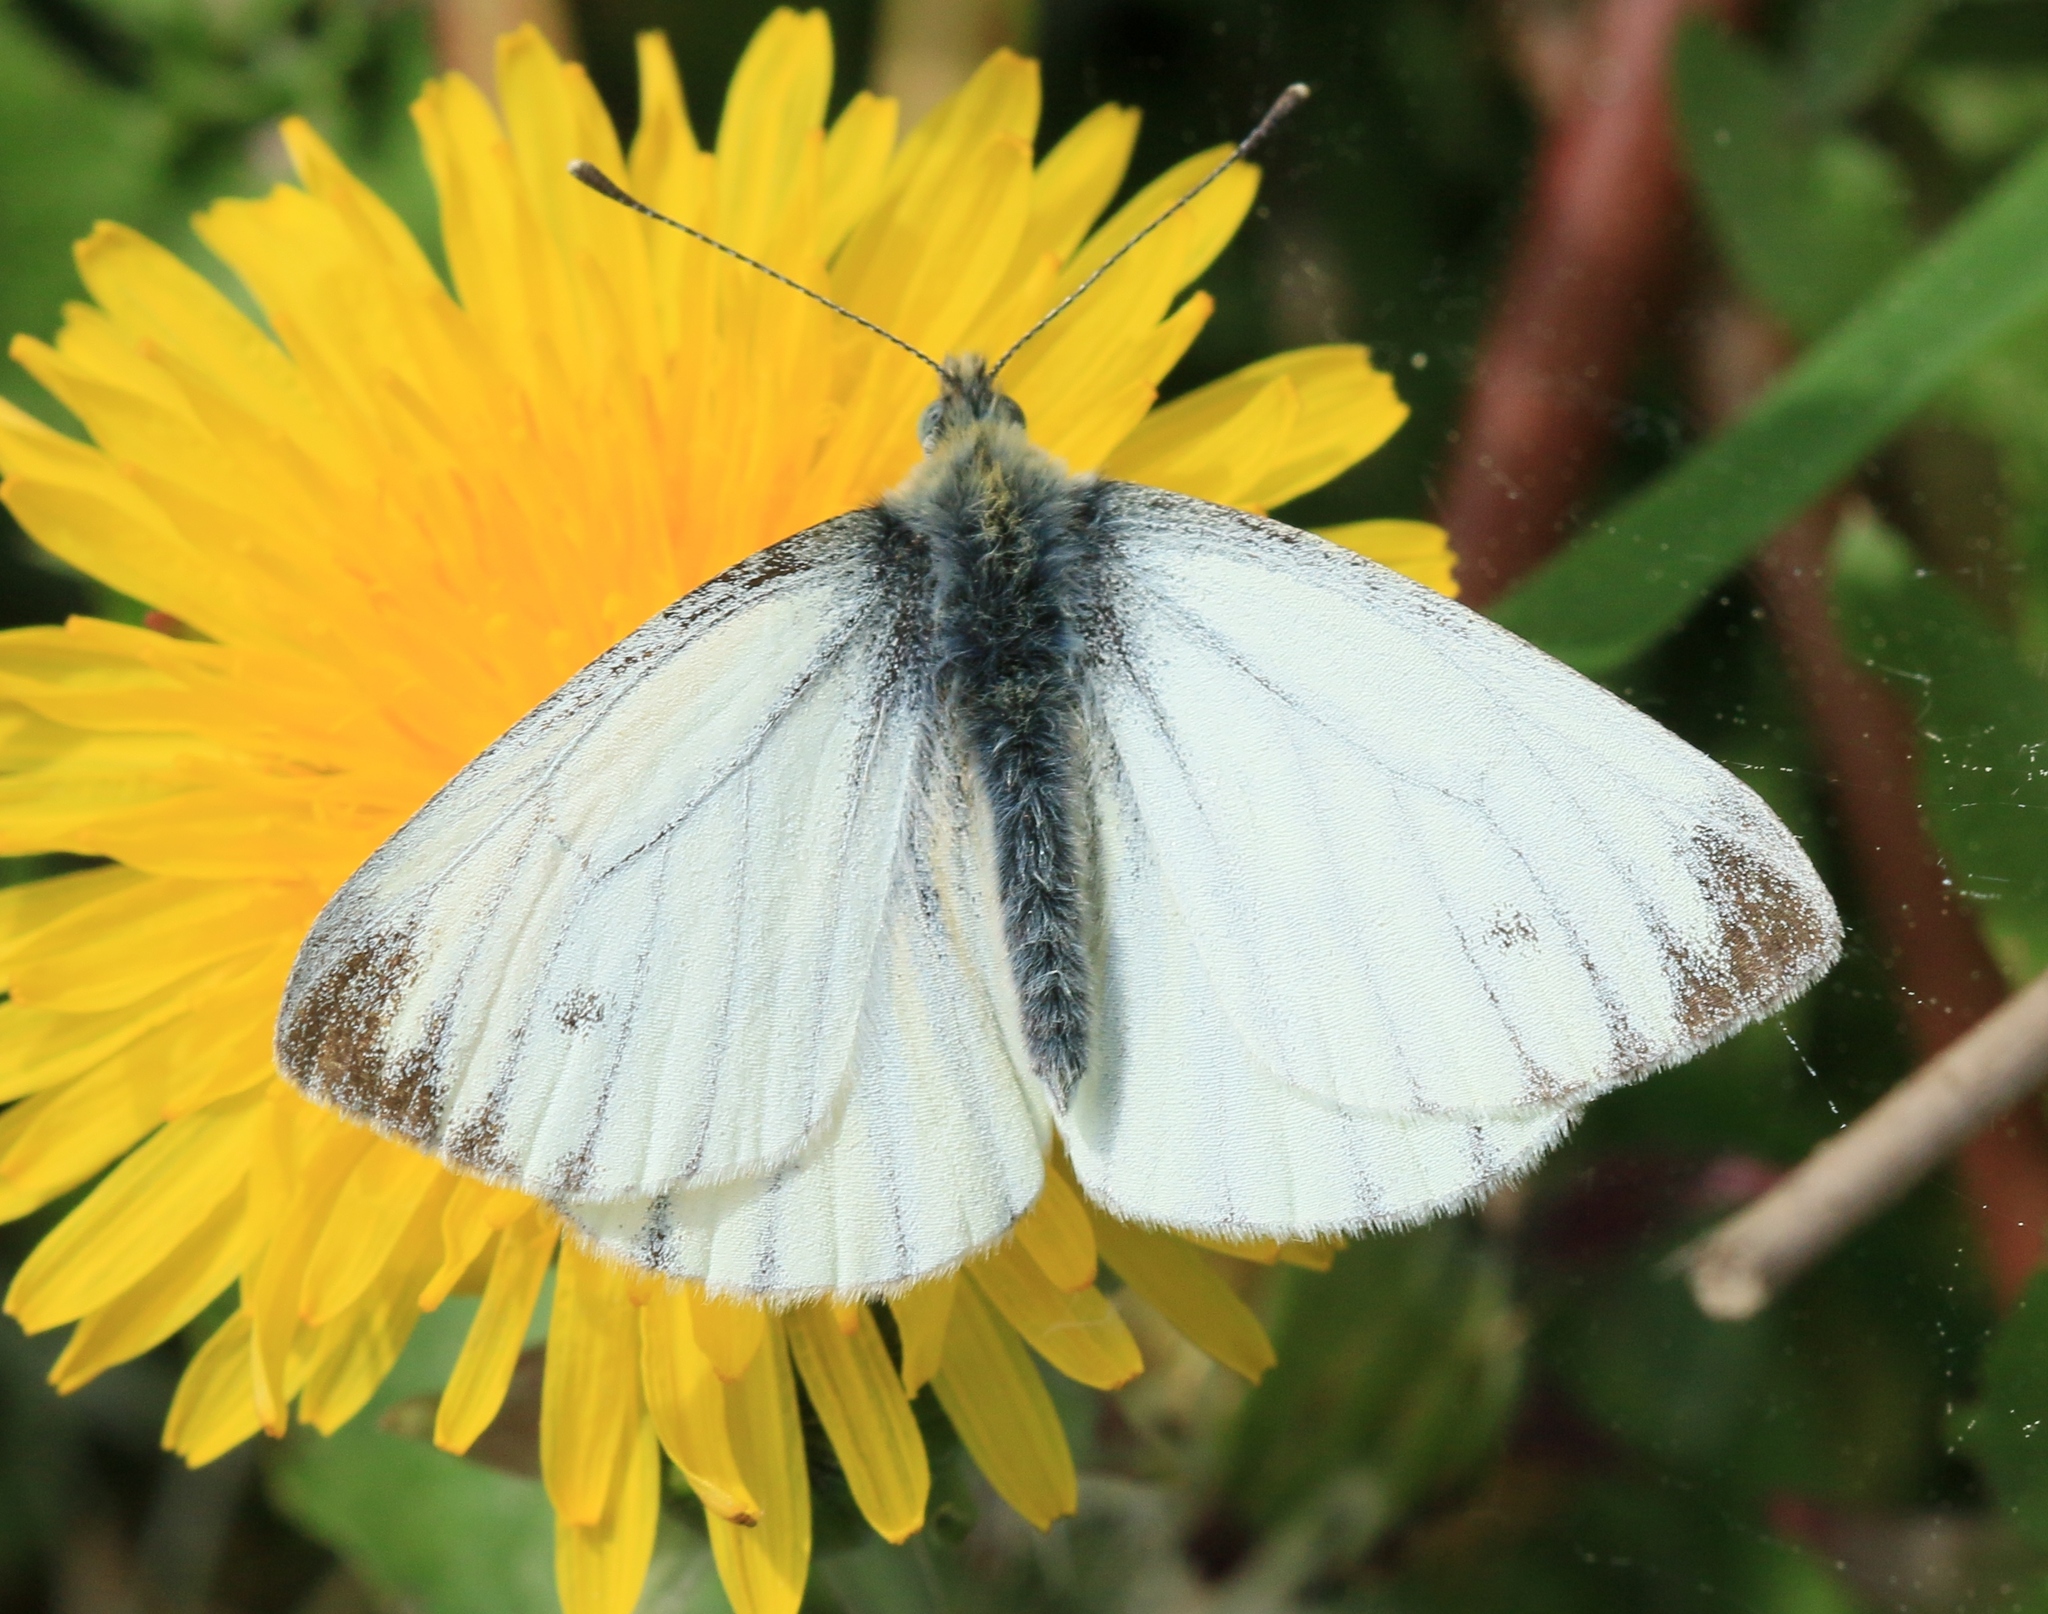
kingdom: Animalia
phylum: Arthropoda
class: Insecta
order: Lepidoptera
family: Pieridae
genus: Pieris
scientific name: Pieris napi
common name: Green-veined white
